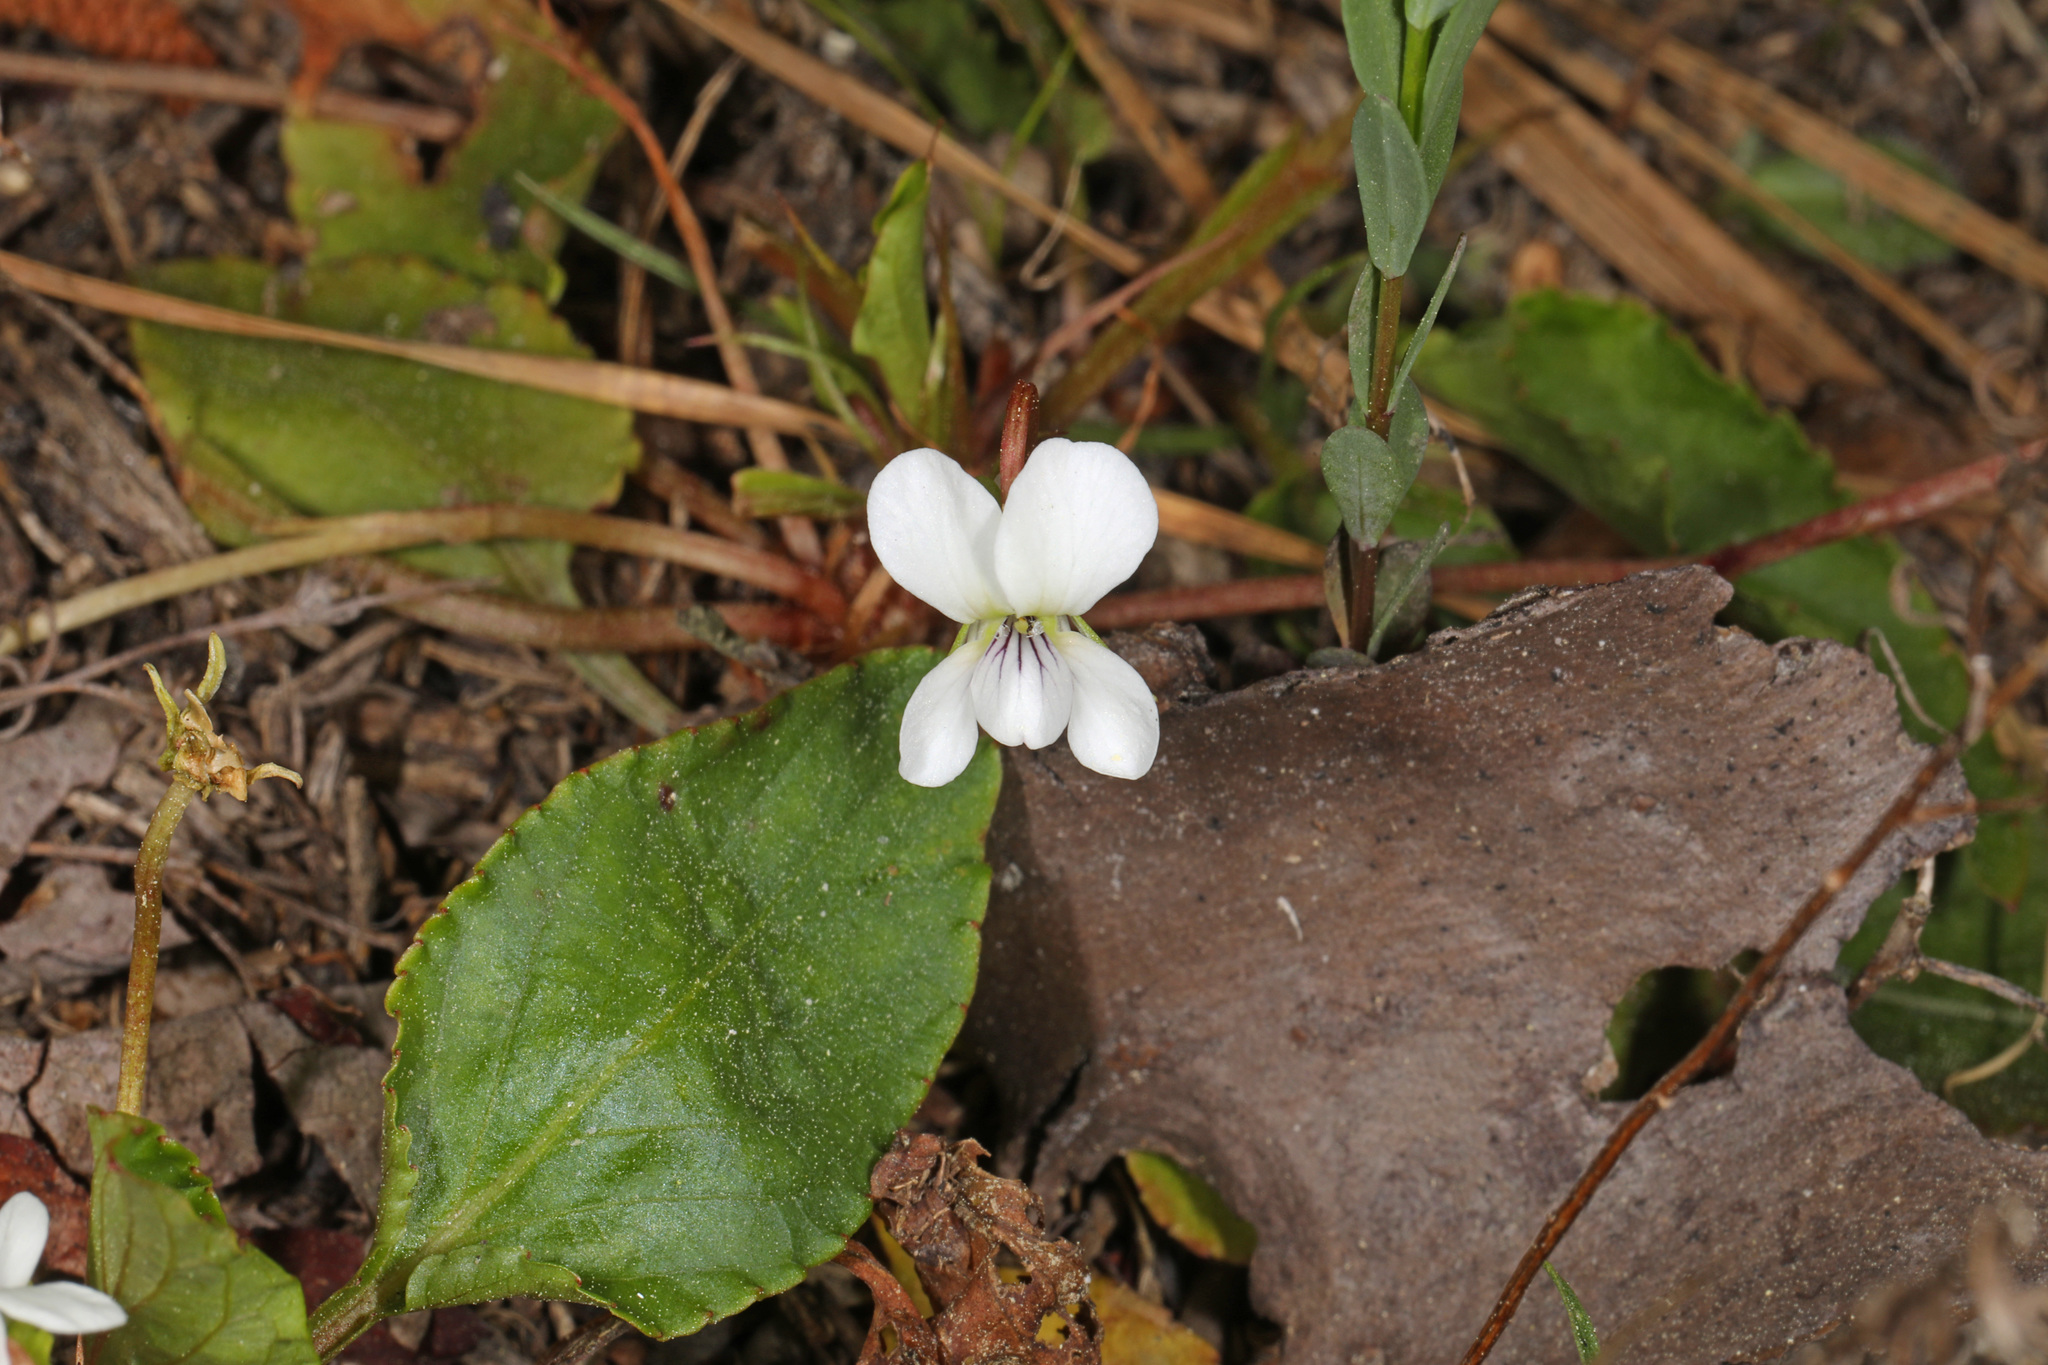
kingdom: Plantae
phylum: Tracheophyta
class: Magnoliopsida
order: Malpighiales
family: Violaceae
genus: Viola
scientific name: Viola primulifolia
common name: Primrose-leaf violet
